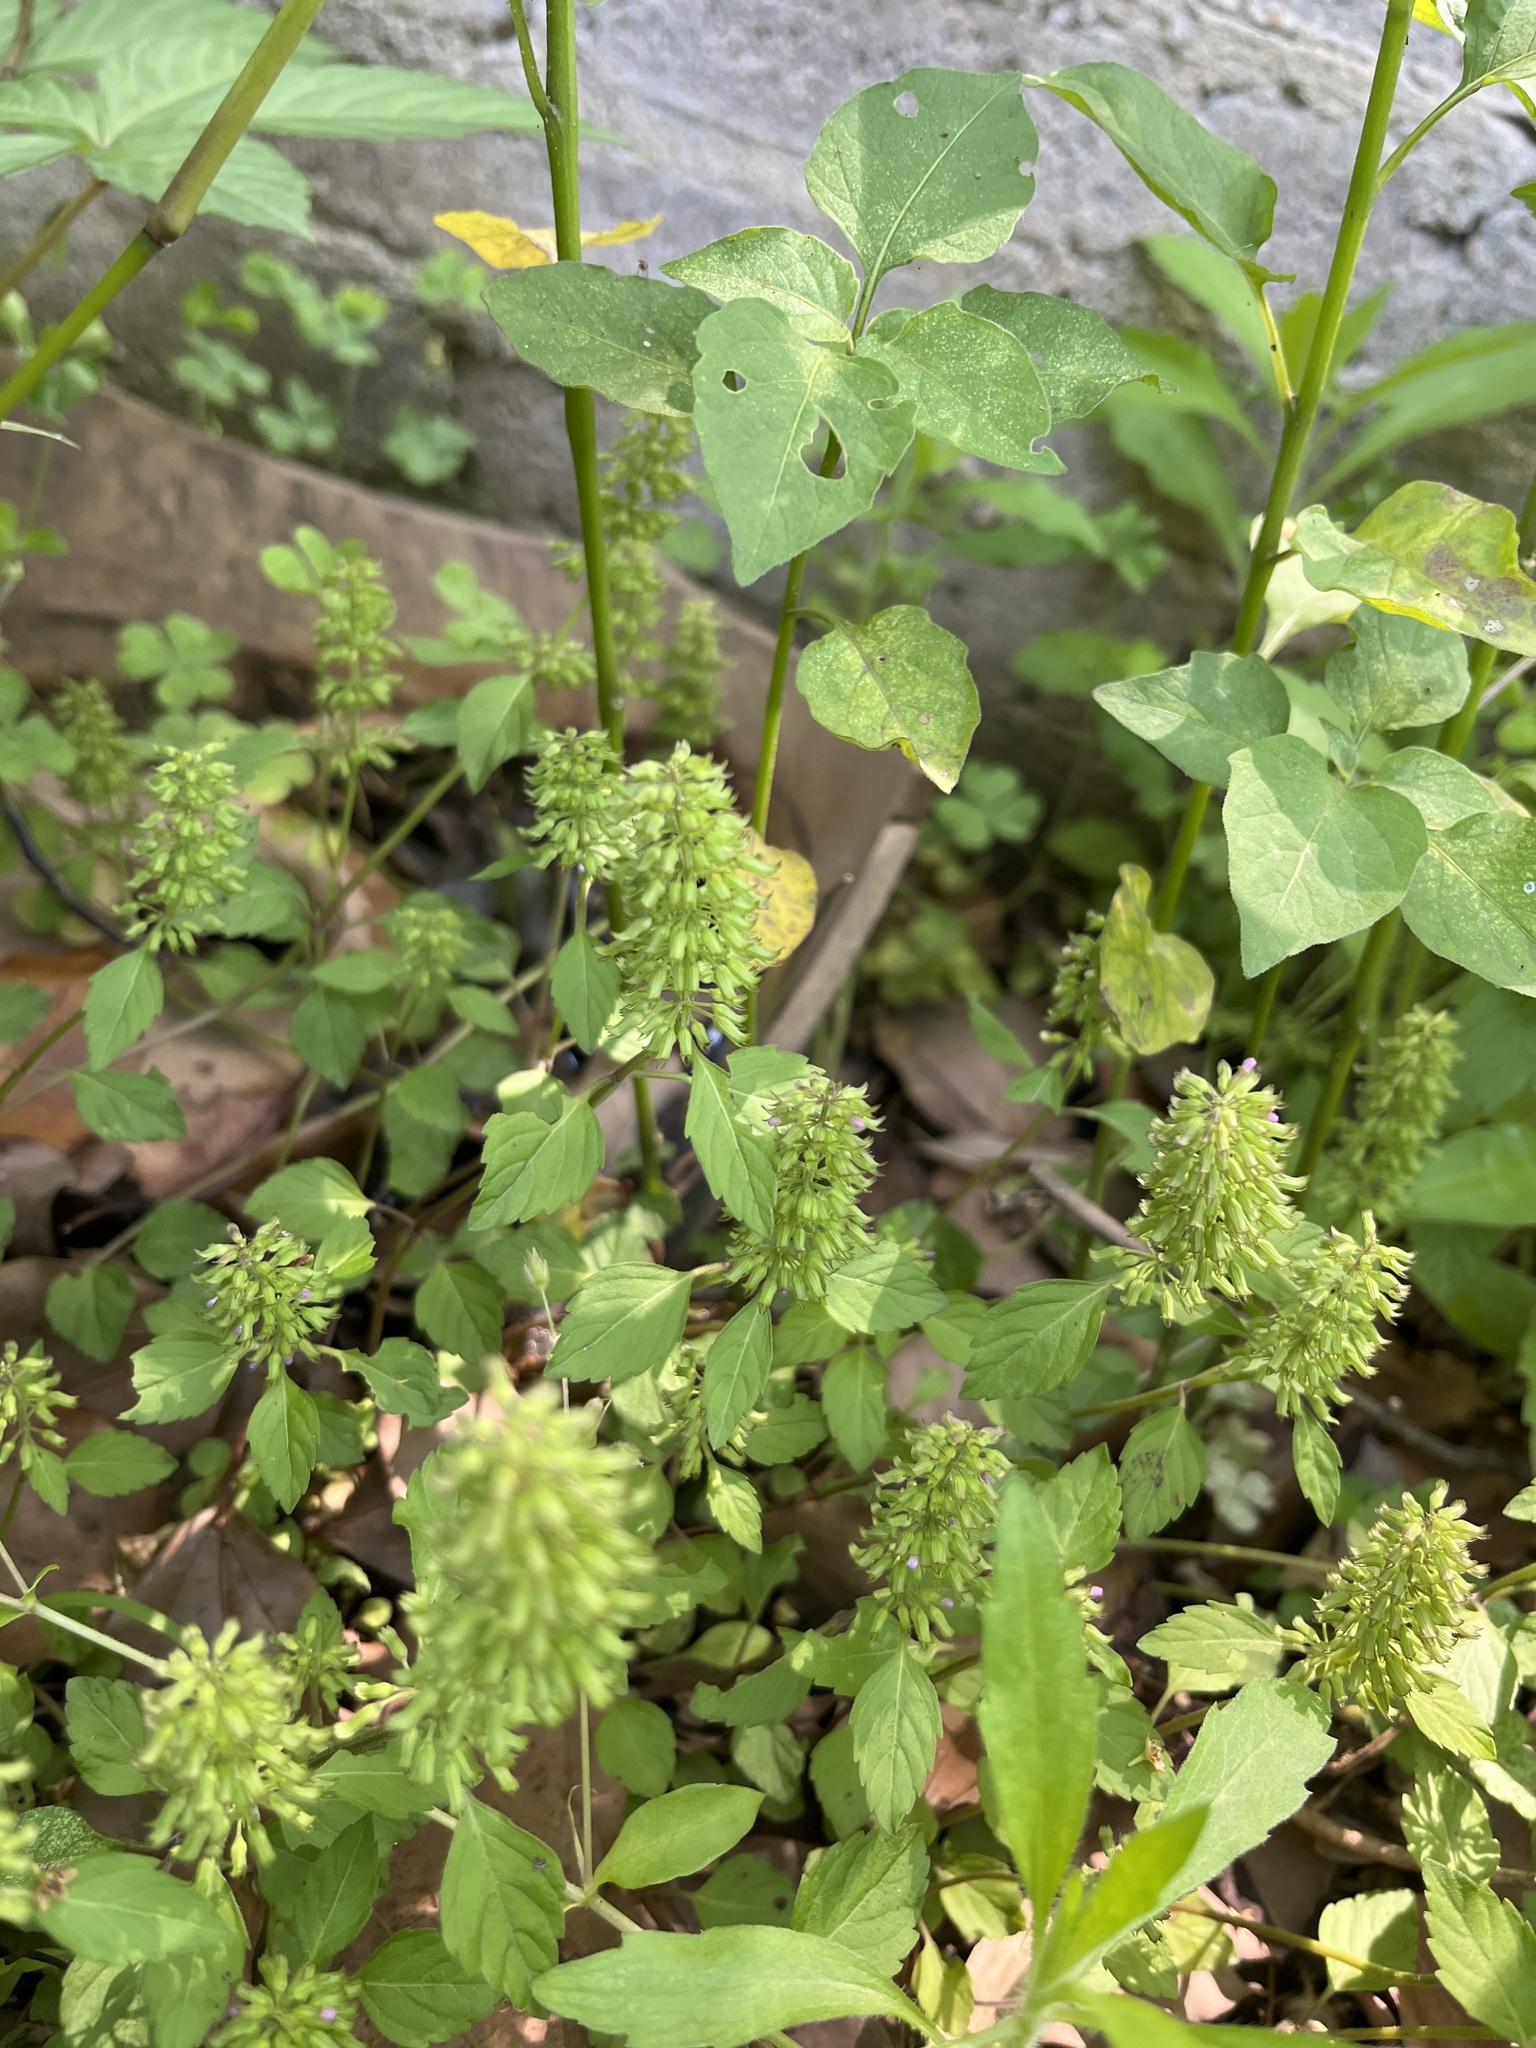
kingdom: Plantae
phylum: Tracheophyta
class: Magnoliopsida
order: Lamiales
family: Lamiaceae
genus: Clinopodium
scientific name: Clinopodium gracile
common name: Slender wild basil
